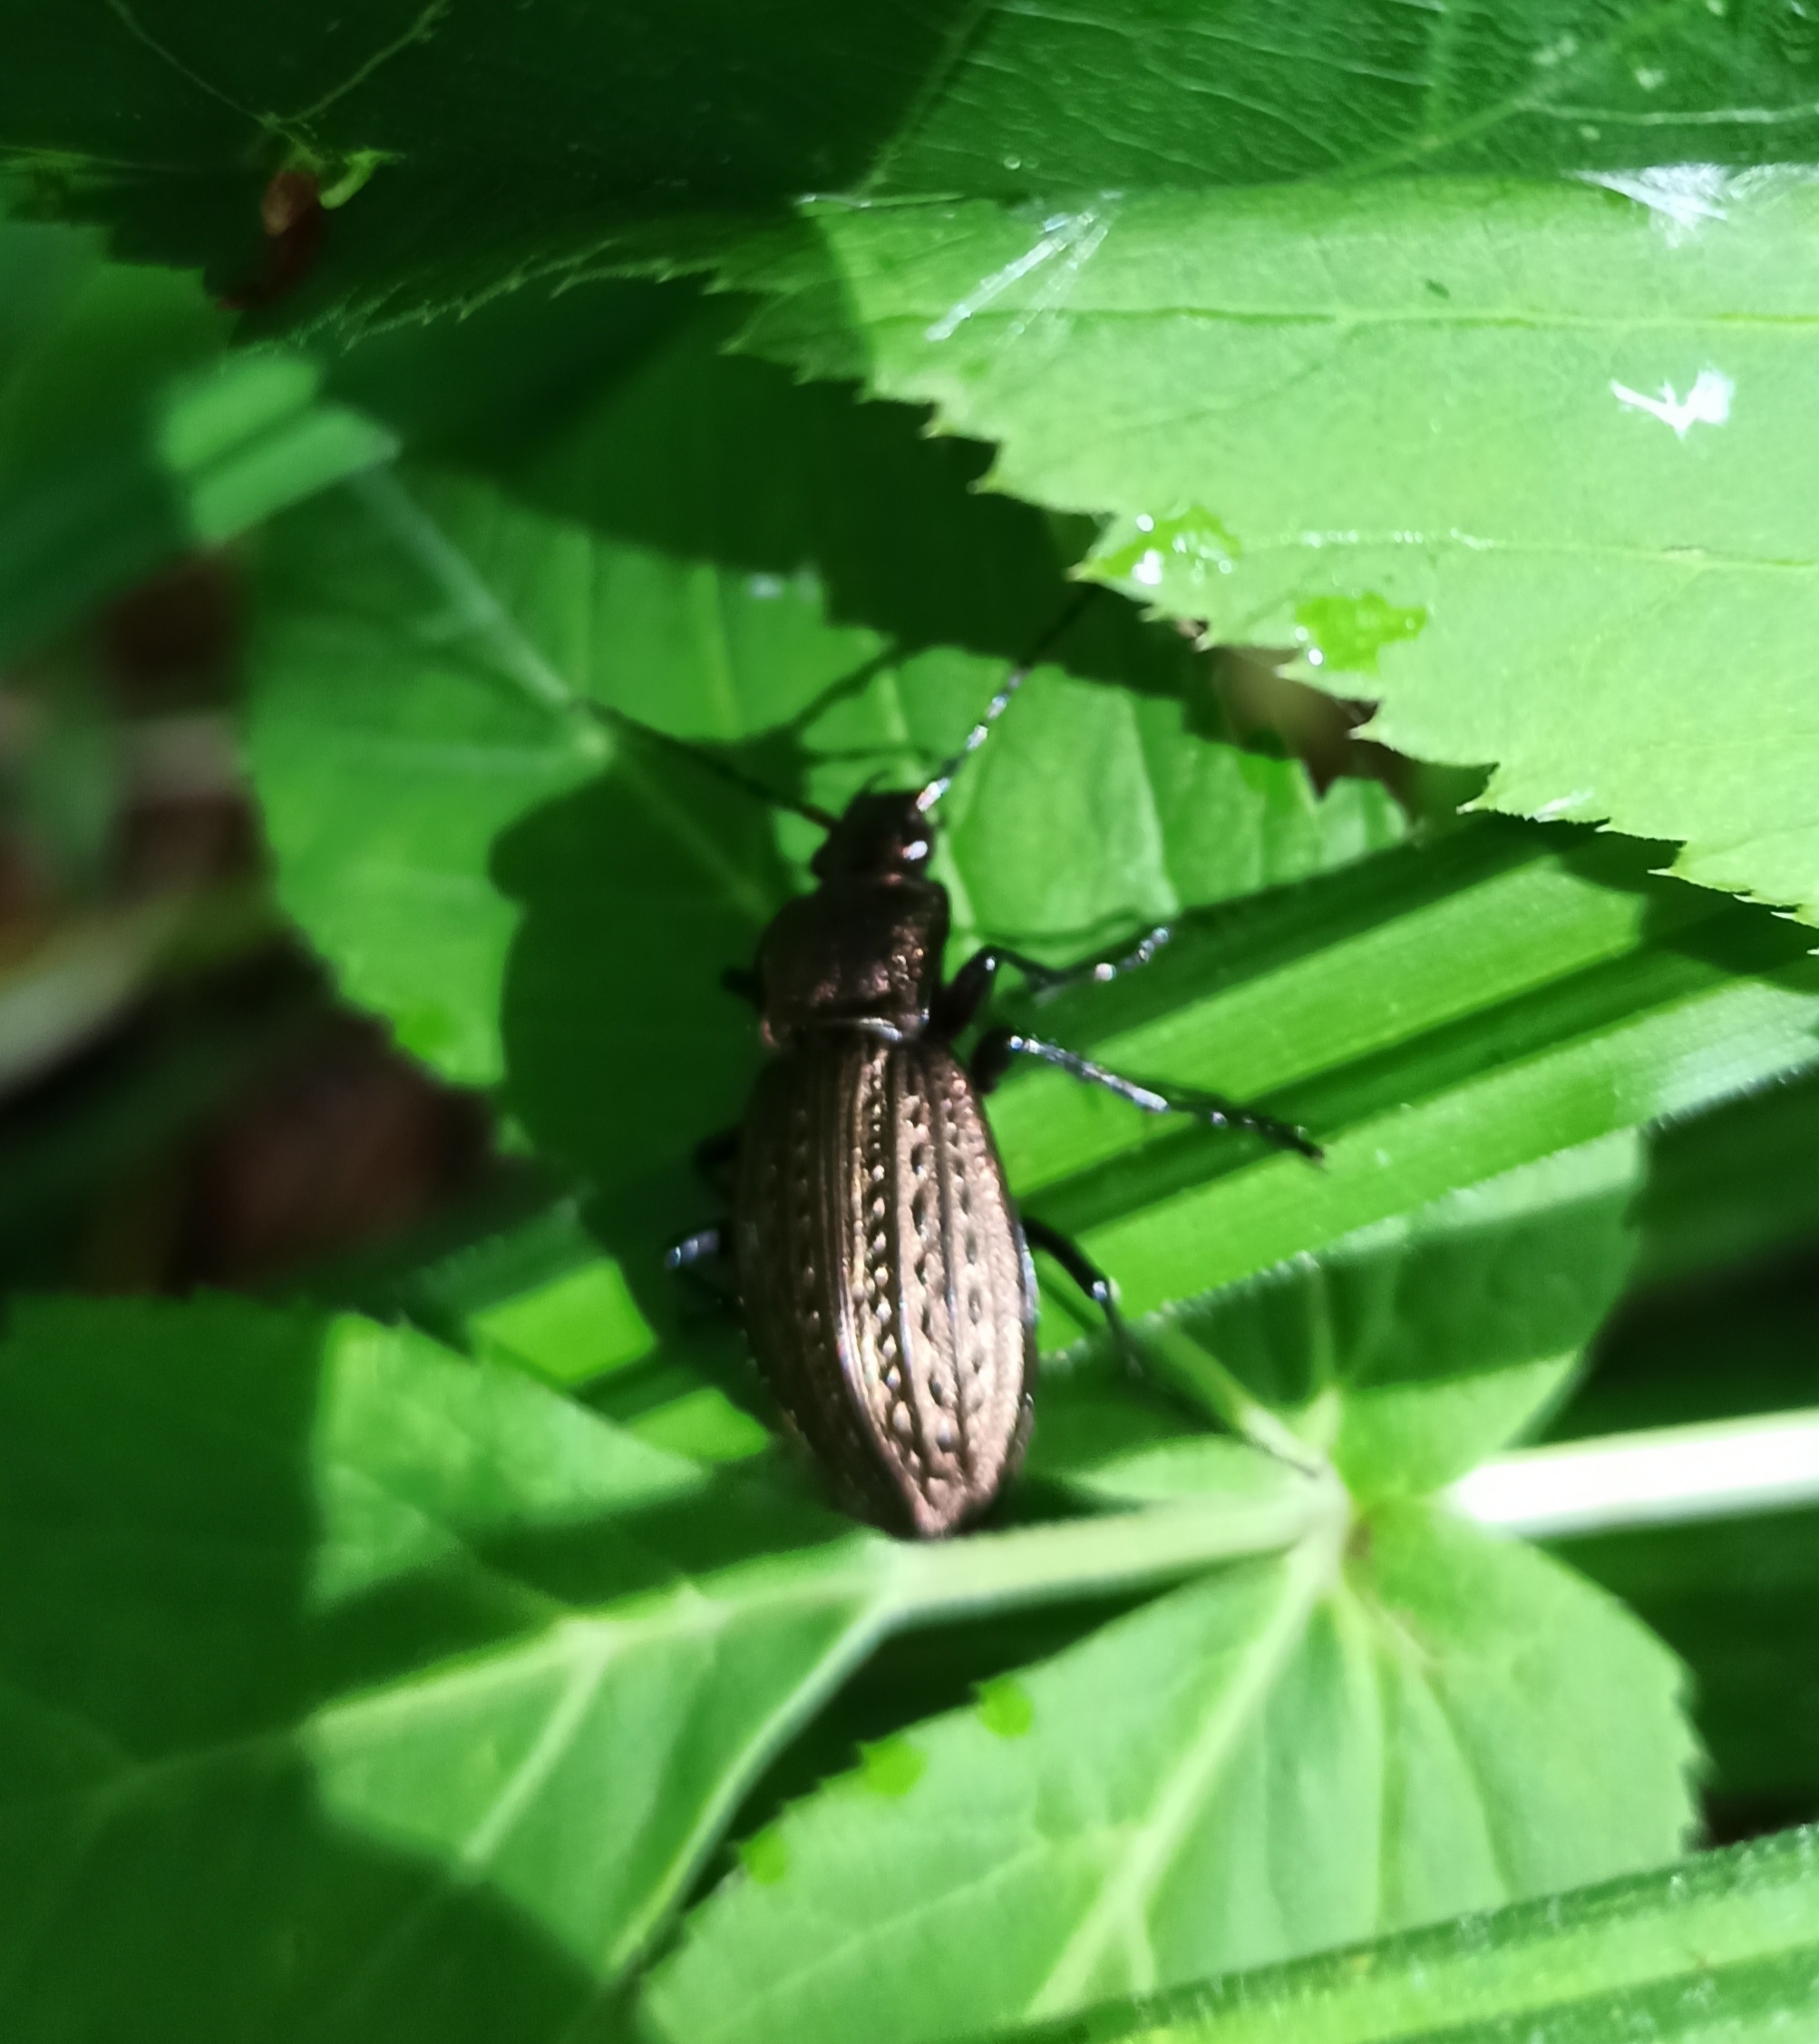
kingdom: Animalia
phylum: Arthropoda
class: Insecta
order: Coleoptera
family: Carabidae
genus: Carabus
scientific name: Carabus granulatus
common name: Granulate ground beetle
